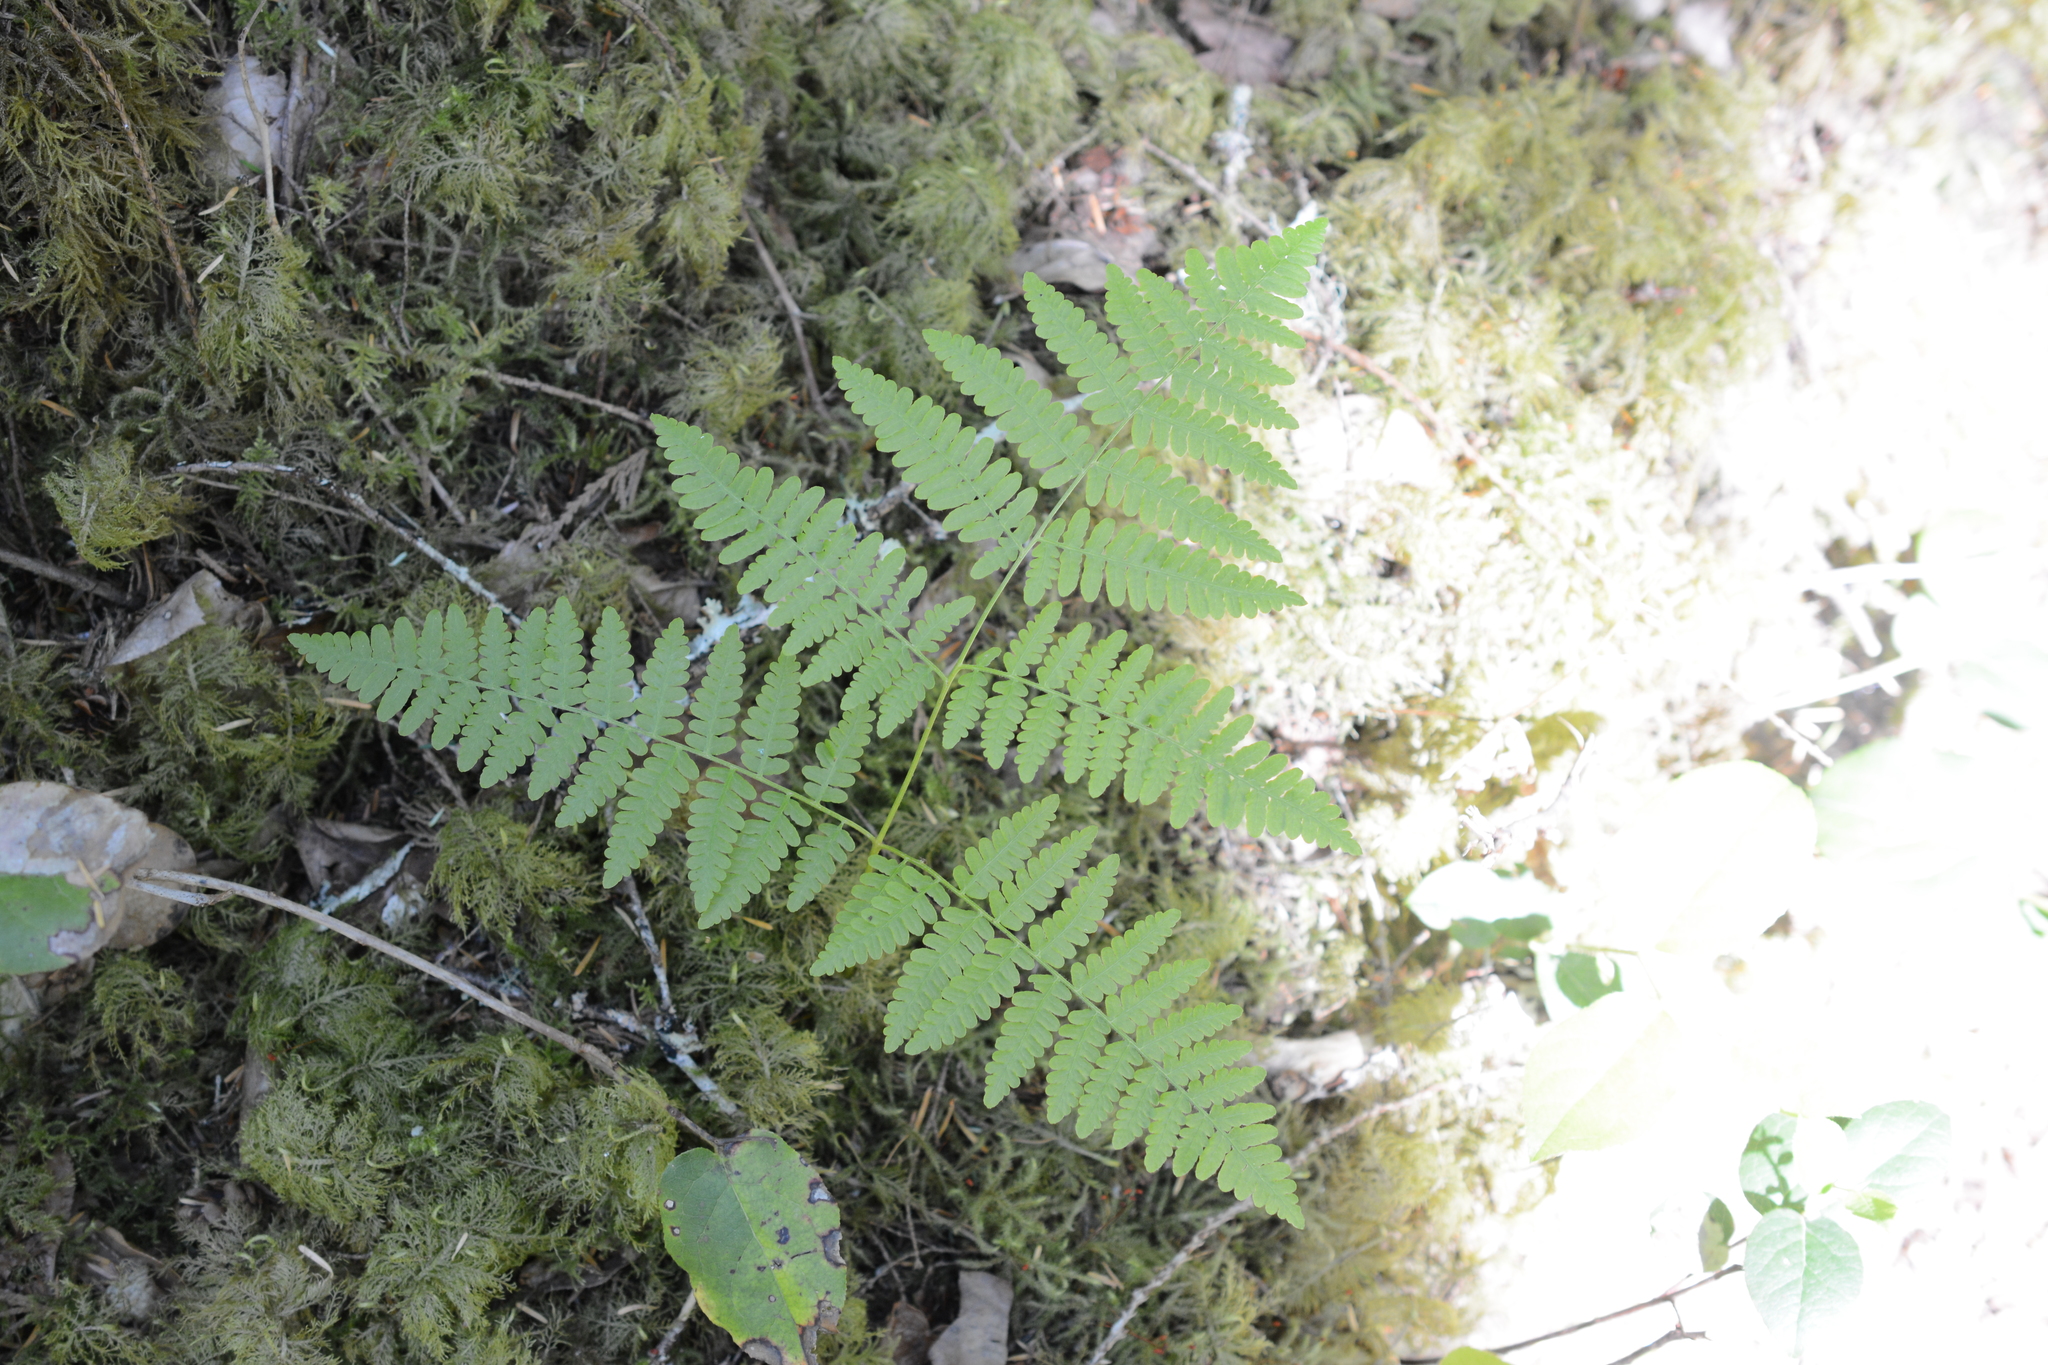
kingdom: Plantae
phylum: Tracheophyta
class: Polypodiopsida
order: Polypodiales
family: Dennstaedtiaceae
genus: Pteridium
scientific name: Pteridium aquilinum
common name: Bracken
